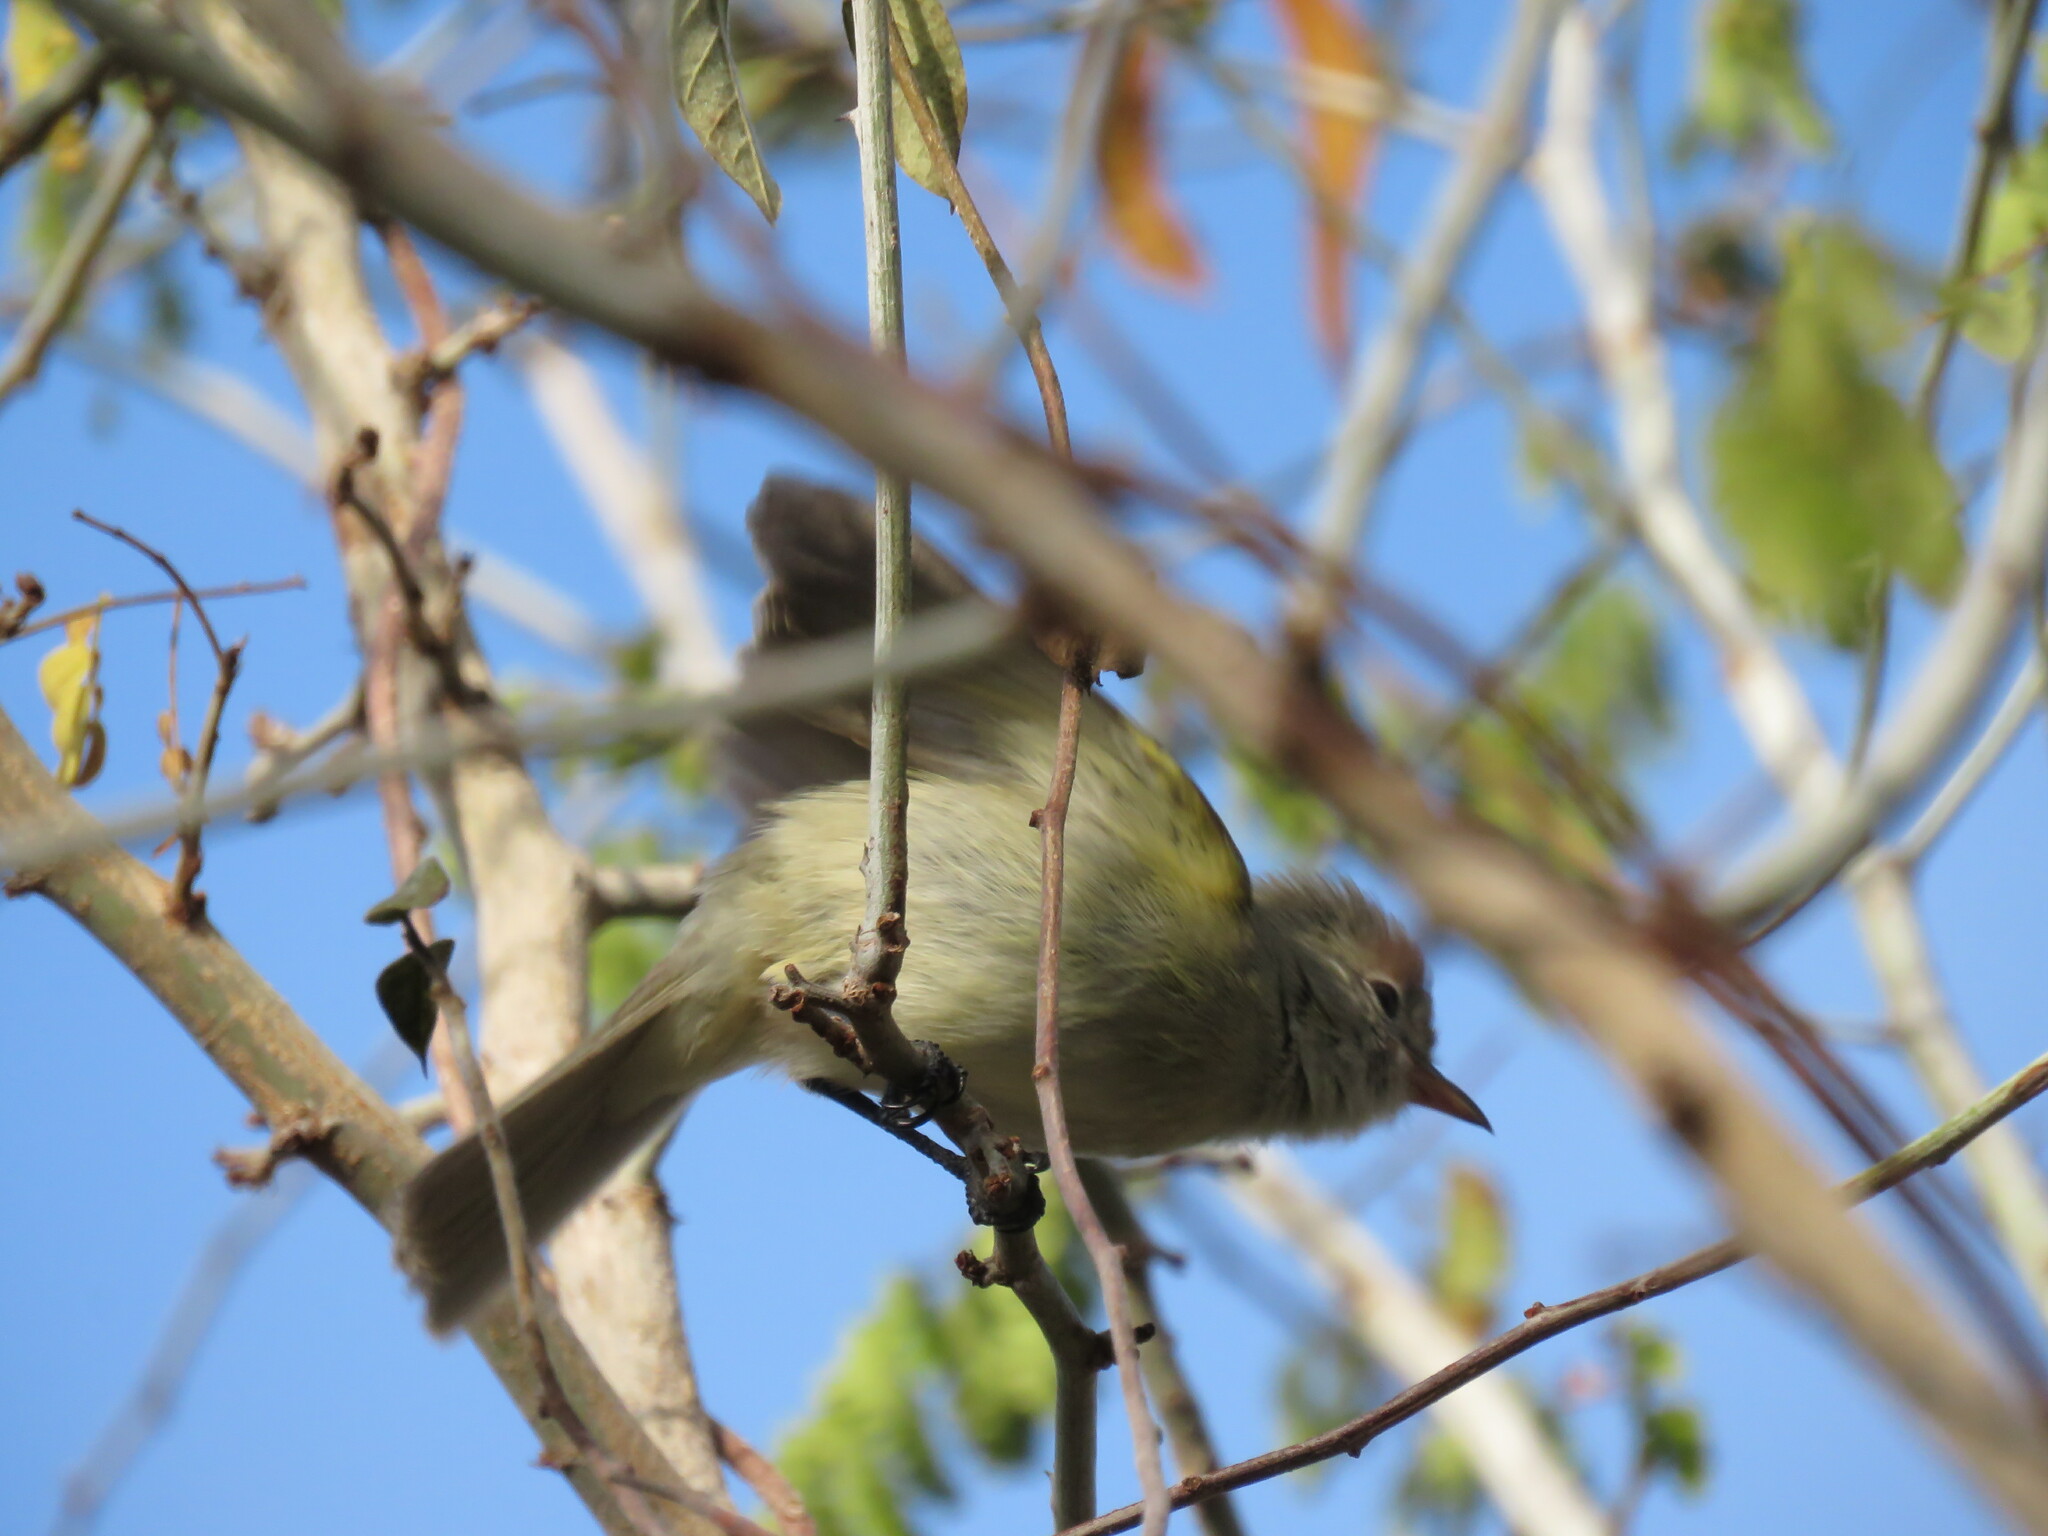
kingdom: Animalia
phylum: Chordata
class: Aves
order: Passeriformes
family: Tyrannidae
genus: Camptostoma
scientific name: Camptostoma imberbe
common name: Northern beardless-tyrannulet
